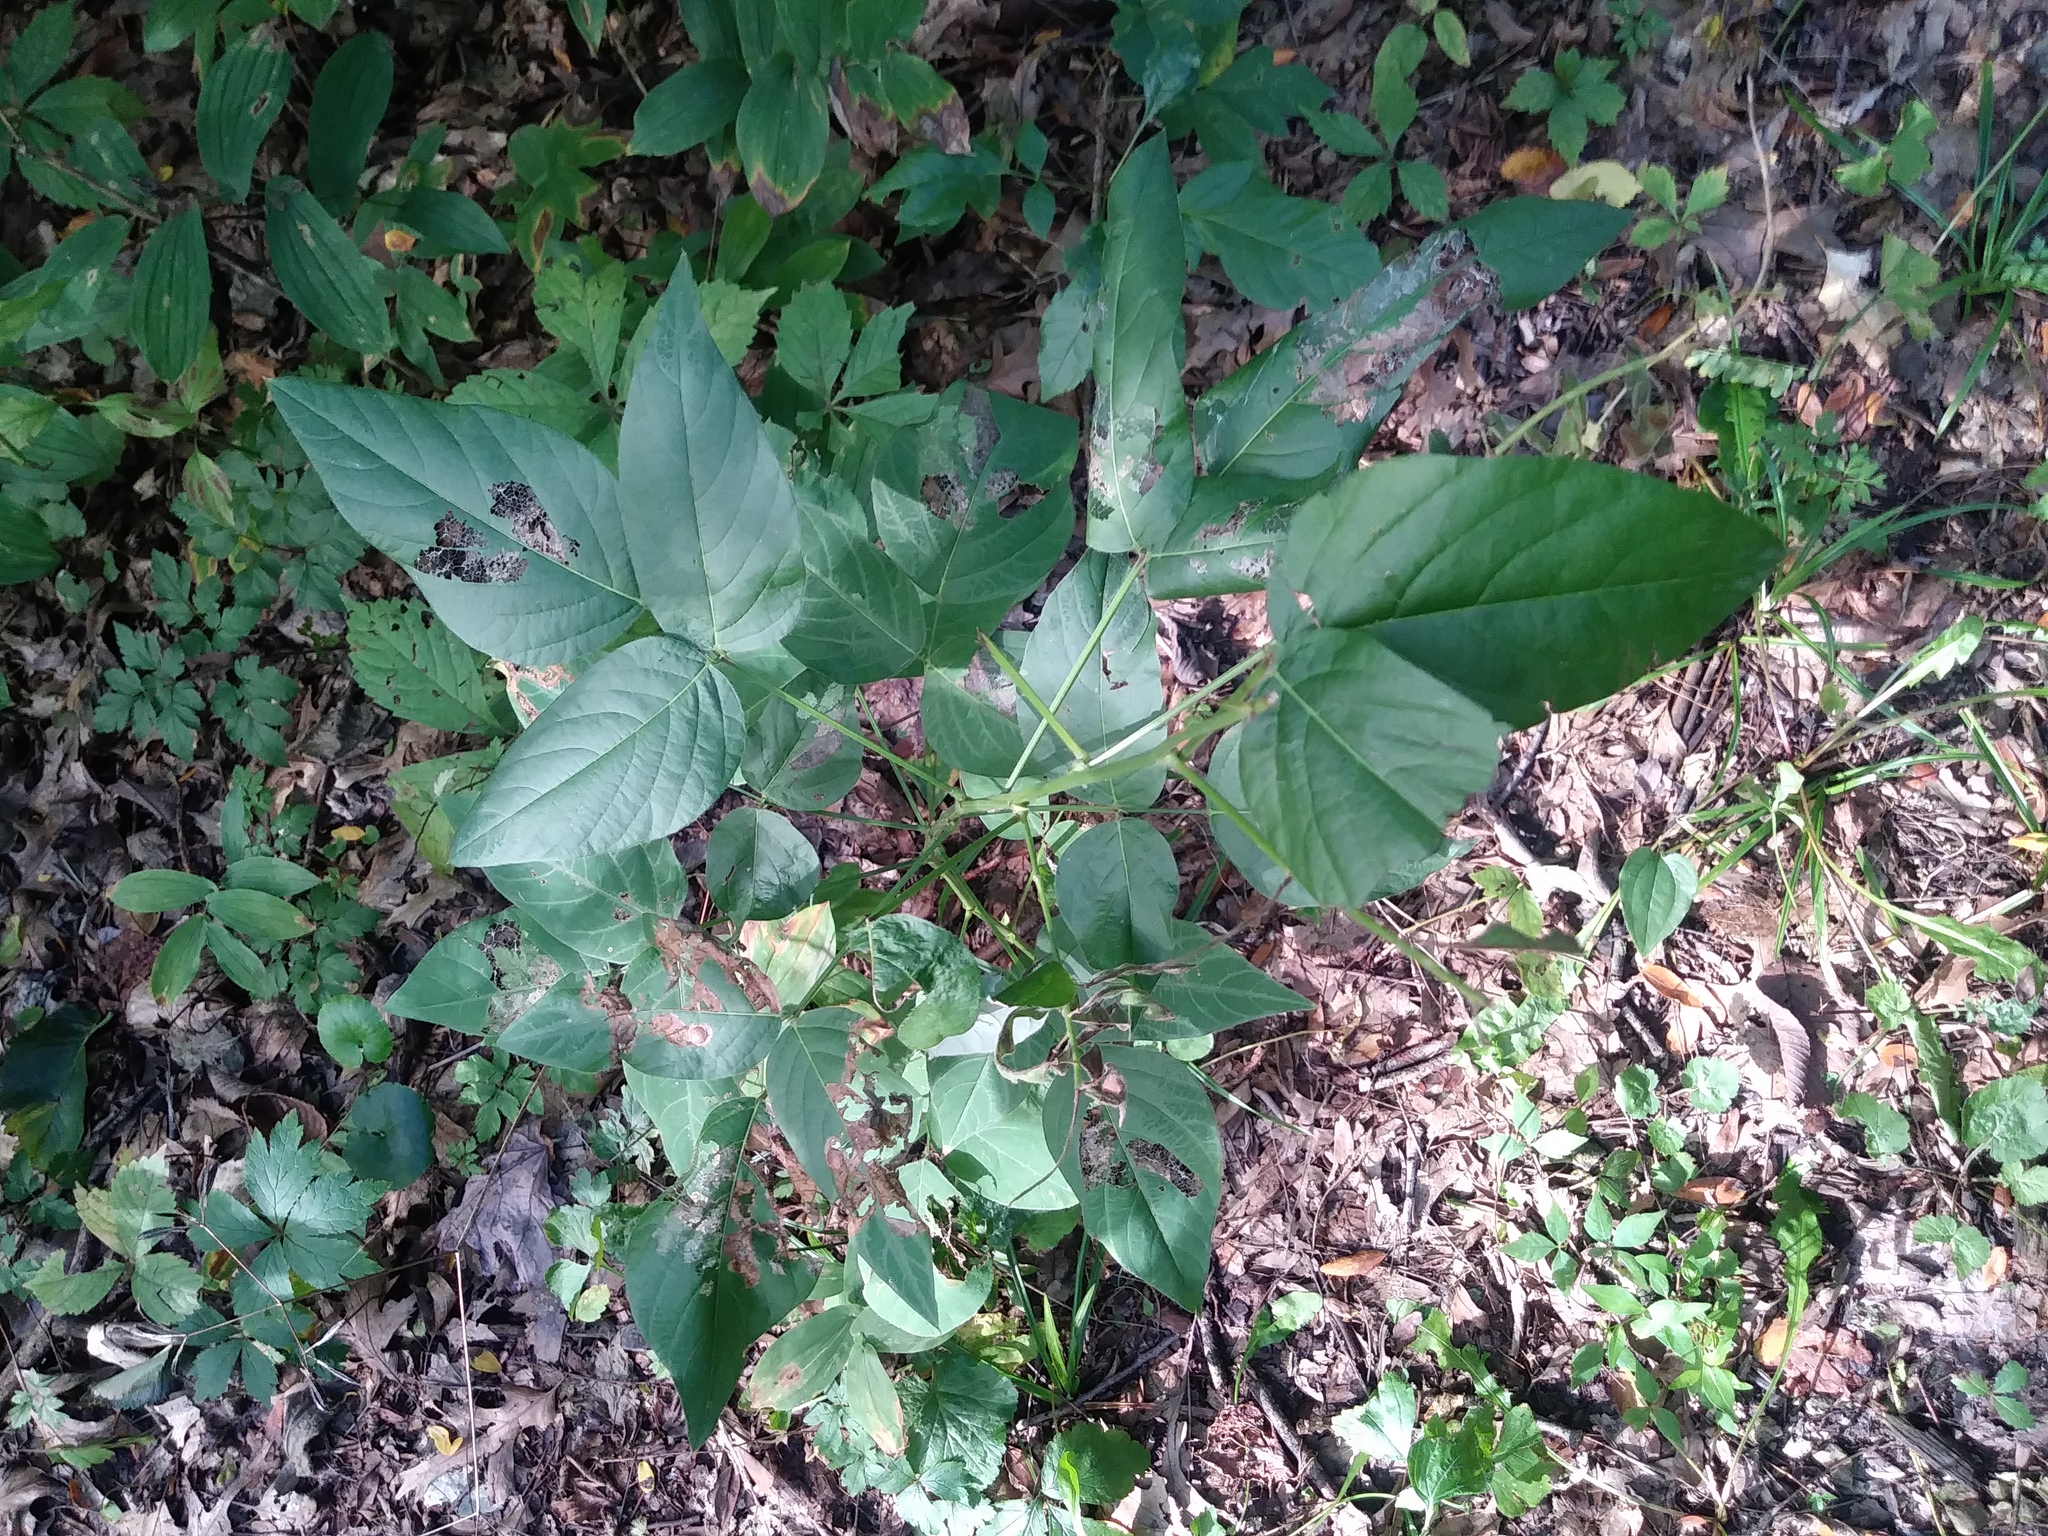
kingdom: Plantae
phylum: Tracheophyta
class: Magnoliopsida
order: Fabales
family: Fabaceae
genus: Desmodium
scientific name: Desmodium cuspidatum
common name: Big tick trefoil
